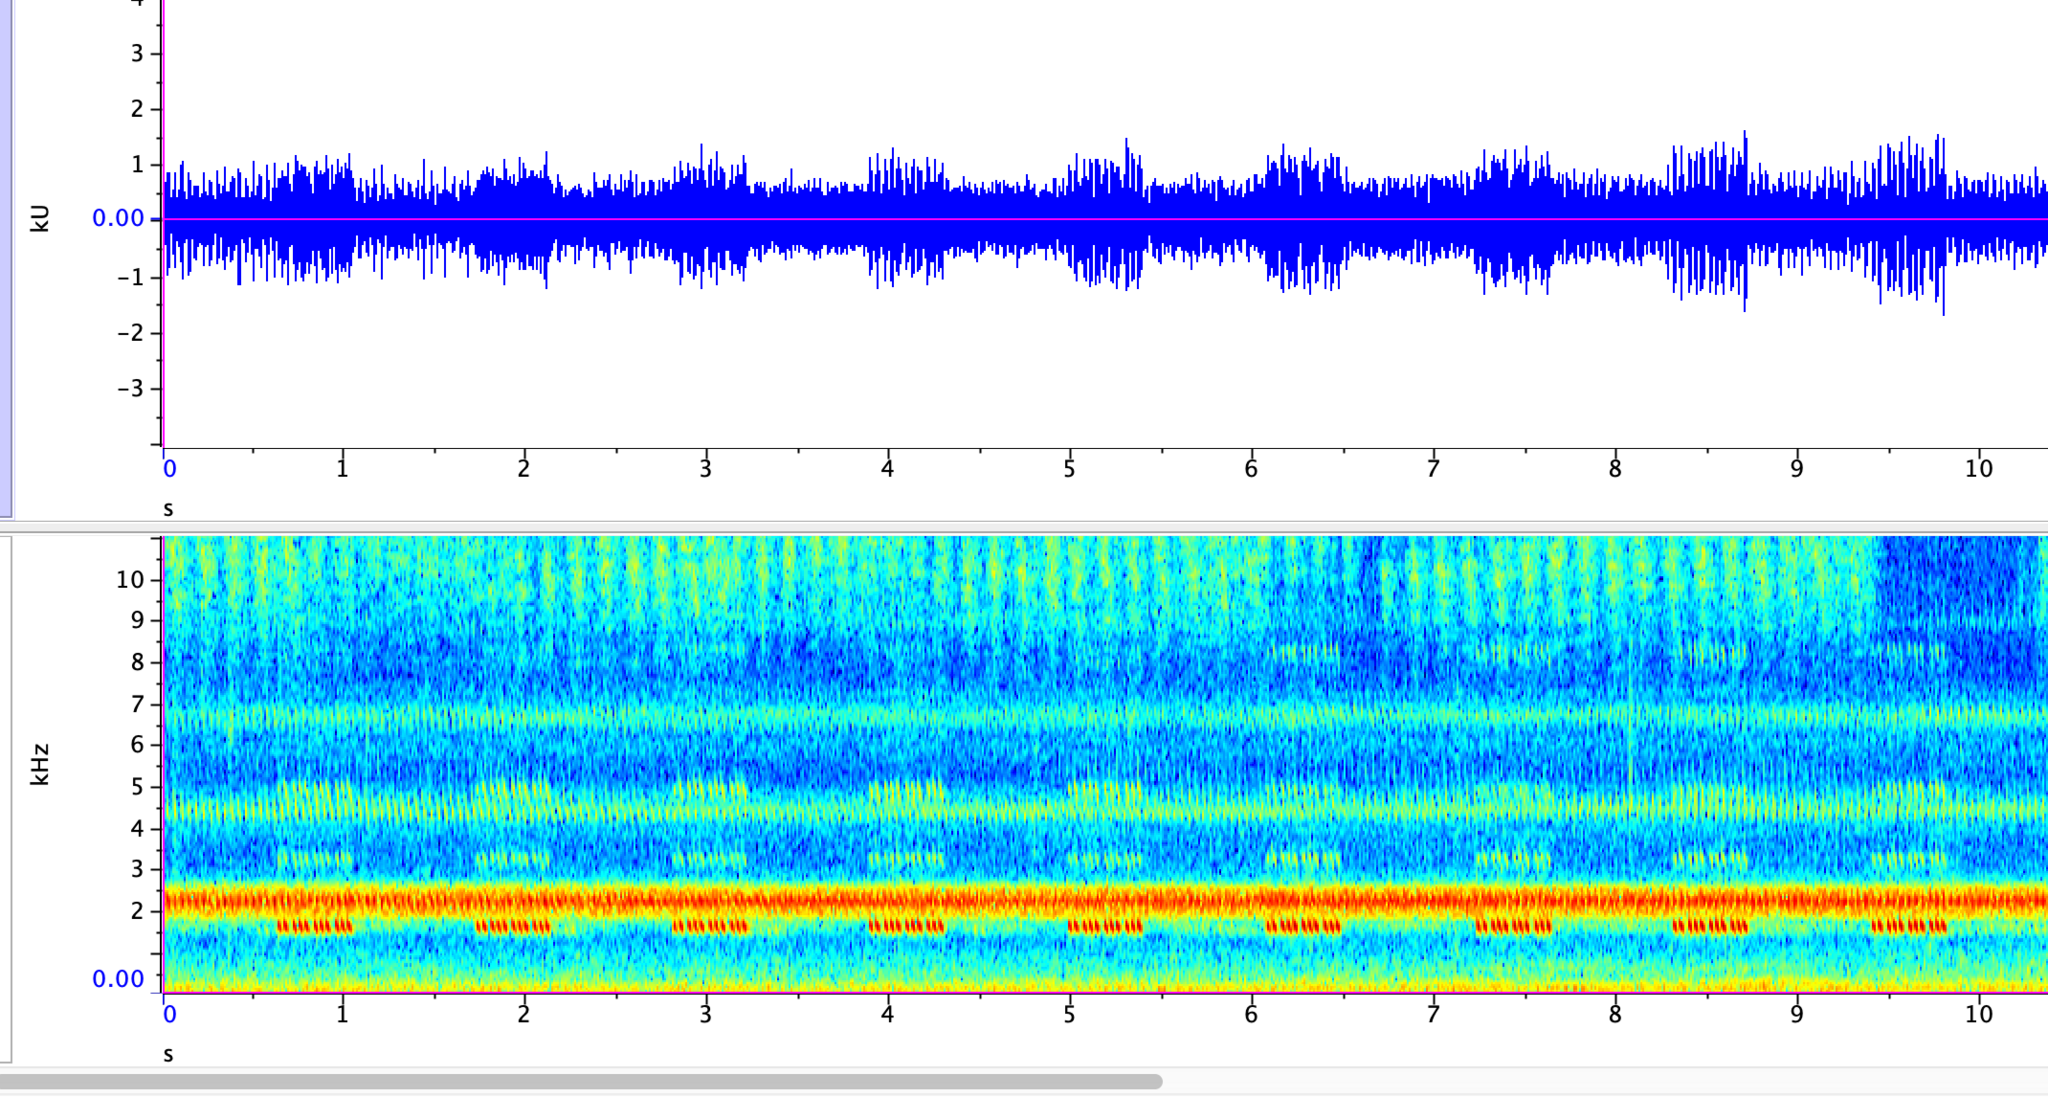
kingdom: Animalia
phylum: Arthropoda
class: Insecta
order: Orthoptera
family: Gryllidae
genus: Oecanthus
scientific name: Oecanthus rileyi
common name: Riley's tree cricket
